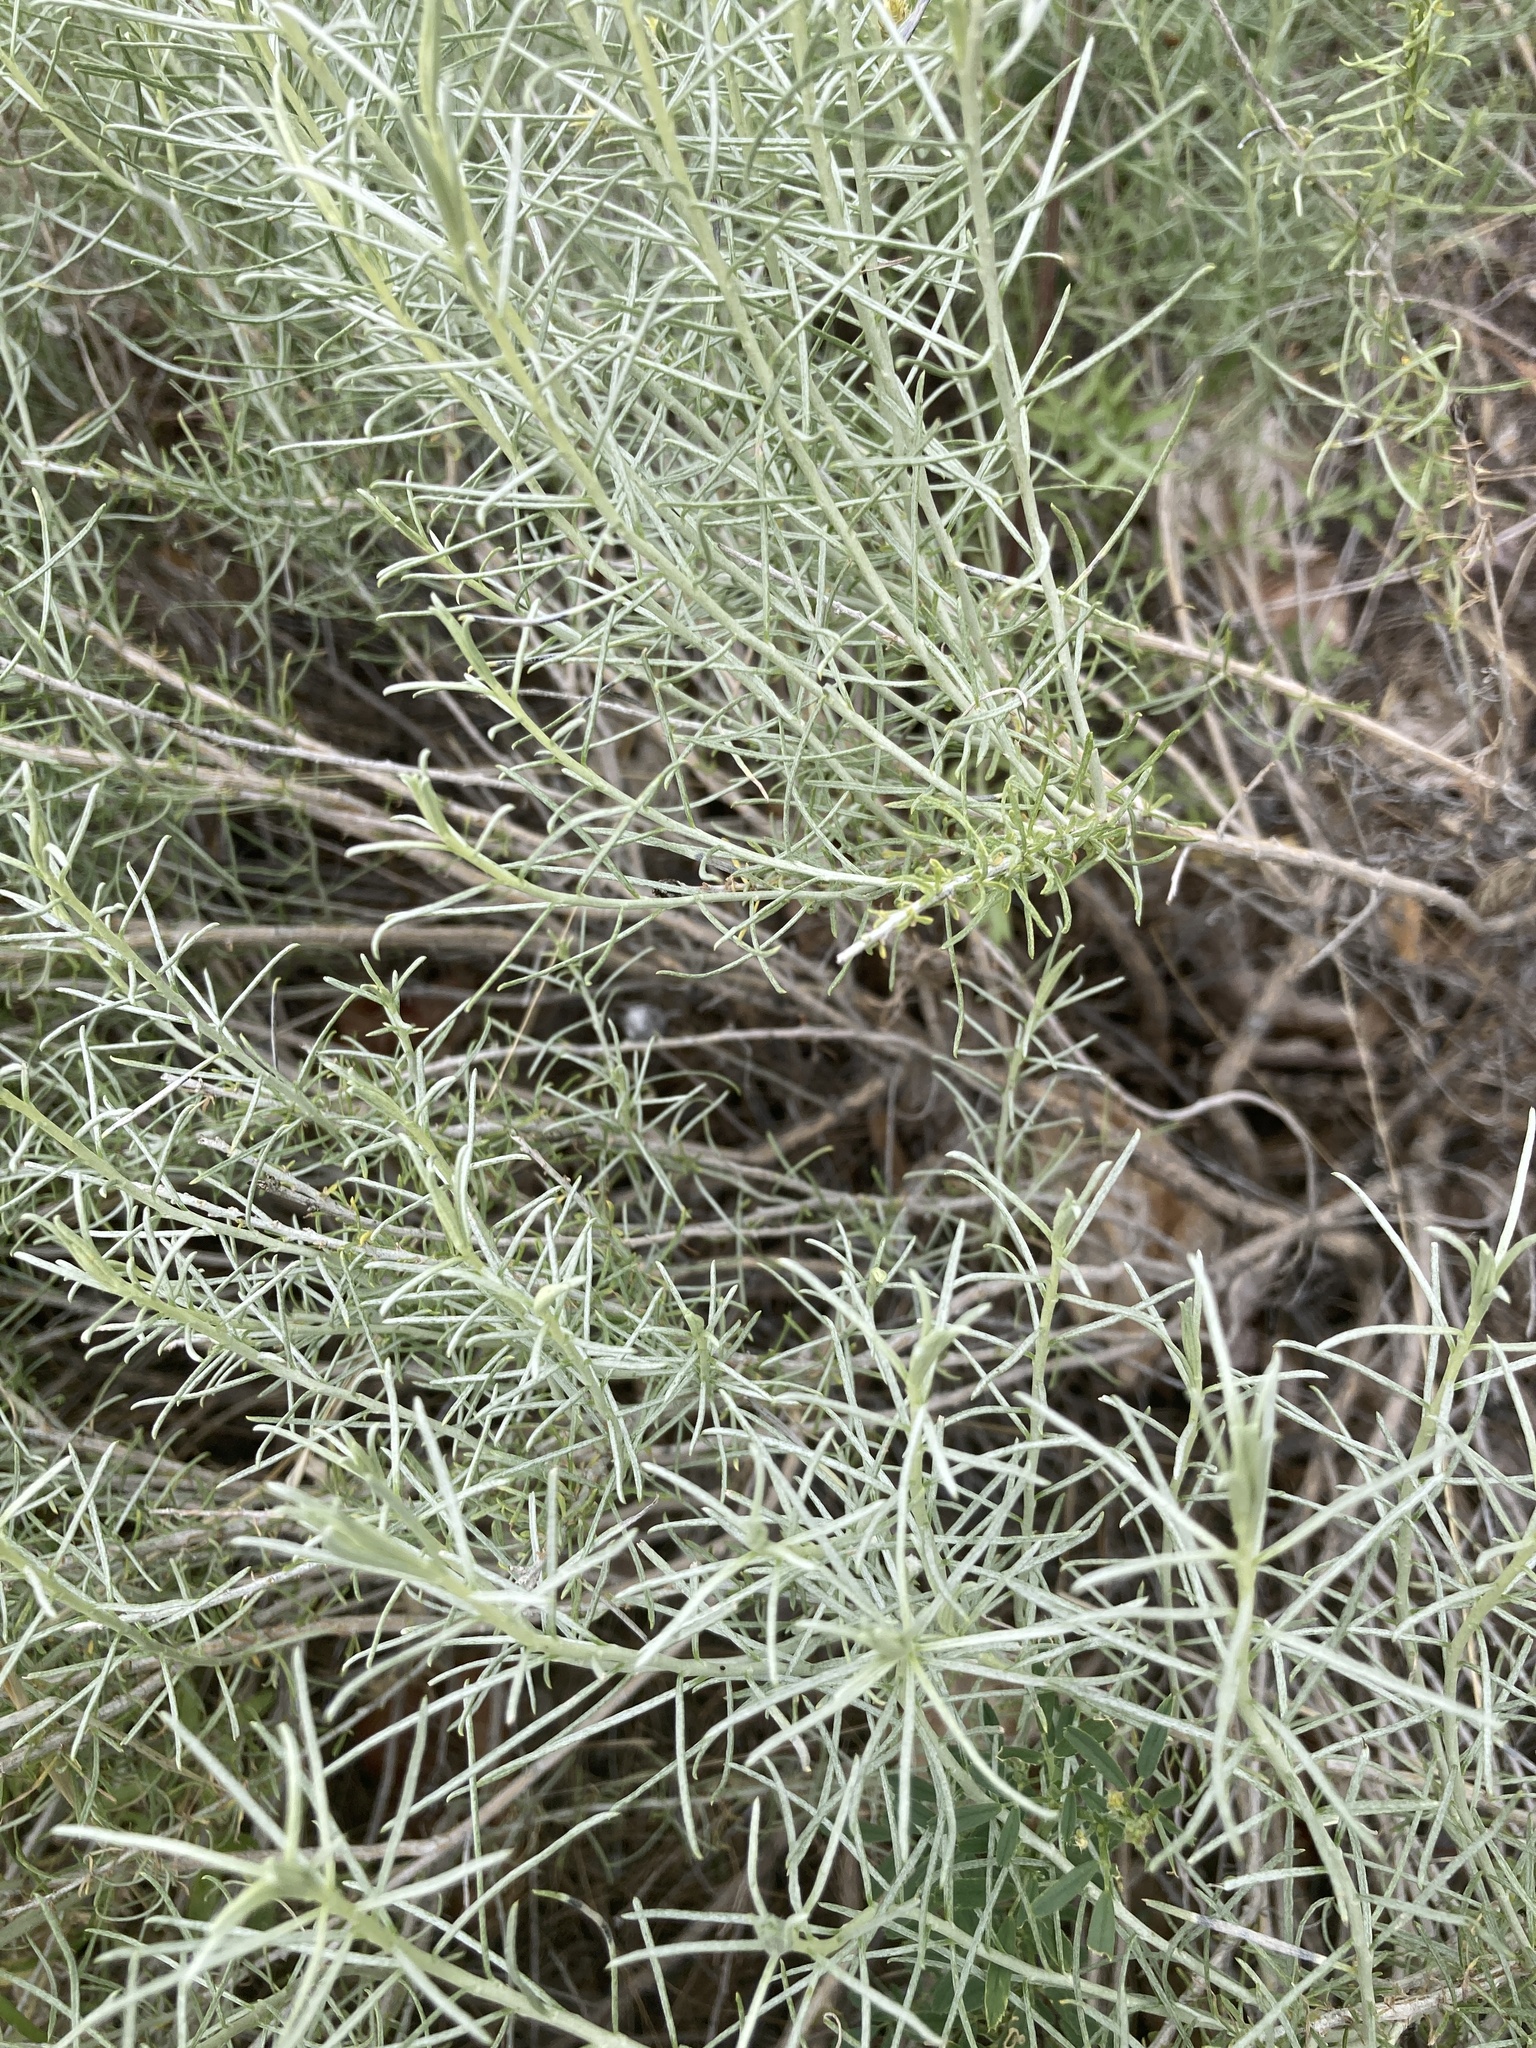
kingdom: Plantae
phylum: Tracheophyta
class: Magnoliopsida
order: Asterales
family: Asteraceae
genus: Ericameria
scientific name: Ericameria nauseosa
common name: Rubber rabbitbrush
